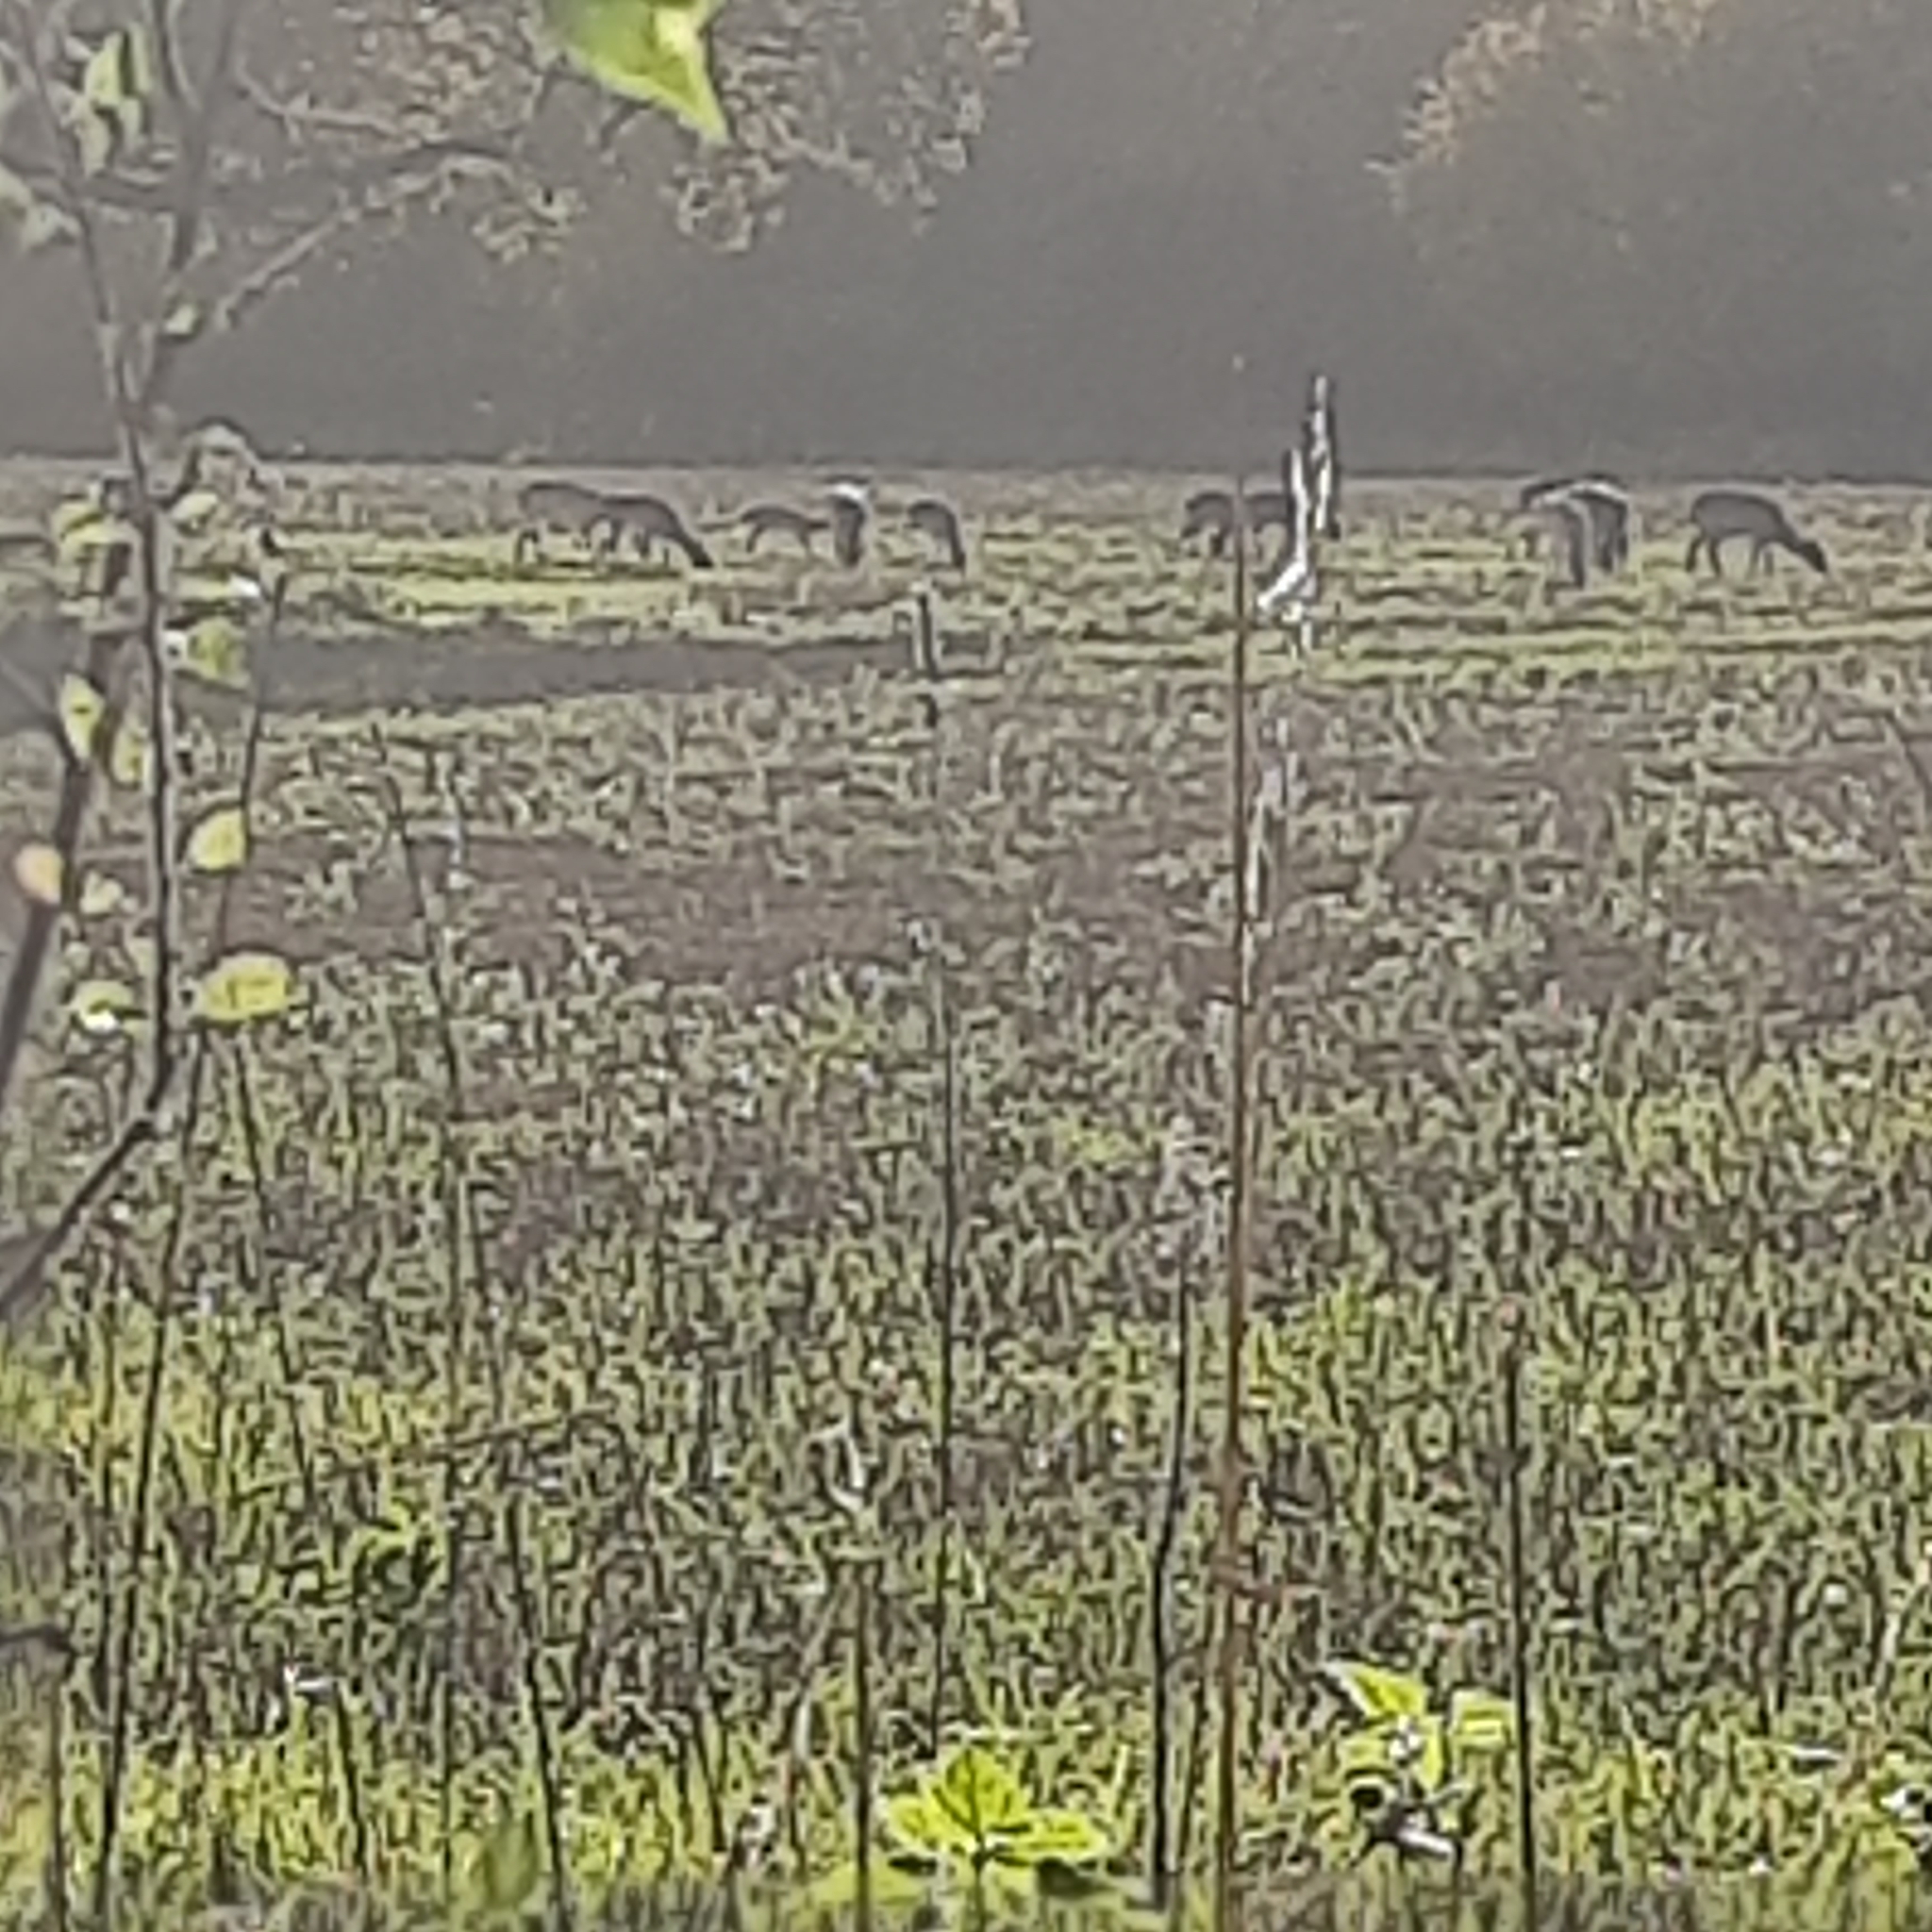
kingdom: Animalia
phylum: Chordata
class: Mammalia
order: Artiodactyla
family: Cervidae
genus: Dama
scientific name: Dama dama
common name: Fallow deer
